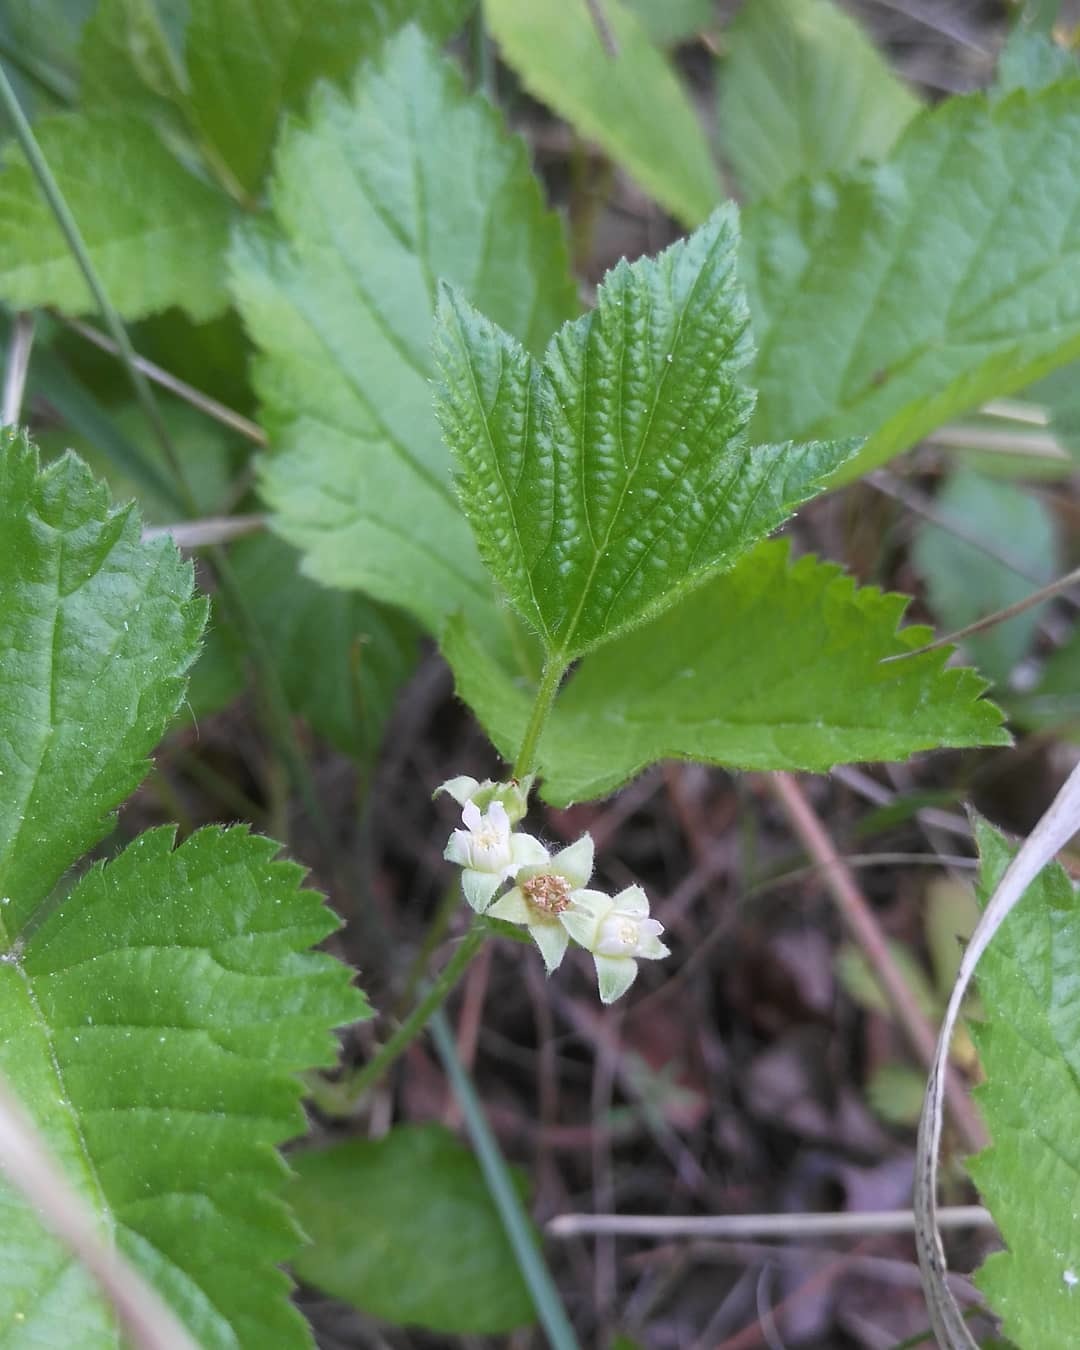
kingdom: Plantae
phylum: Tracheophyta
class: Magnoliopsida
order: Rosales
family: Rosaceae
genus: Rubus
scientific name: Rubus saxatilis
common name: Stone bramble
